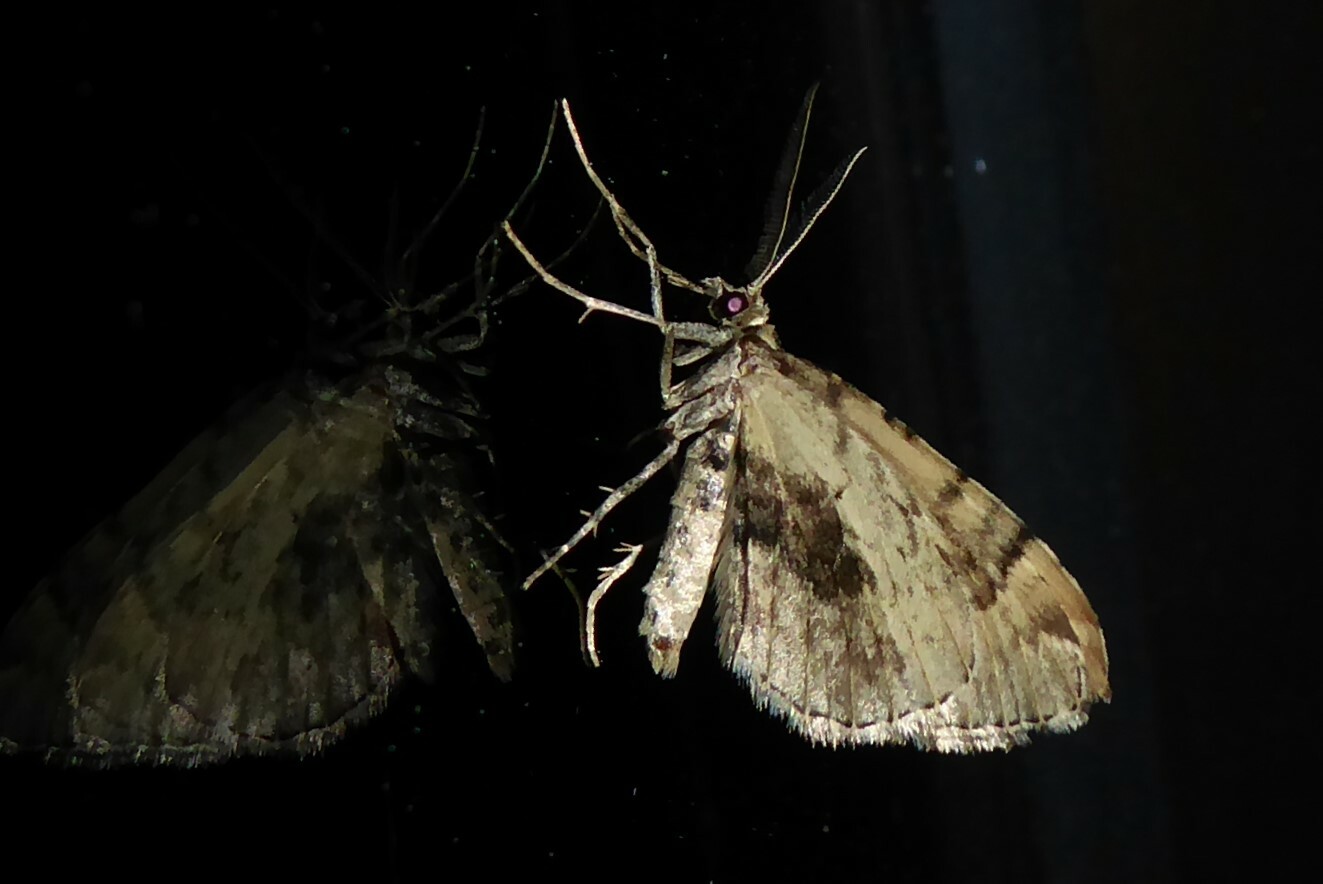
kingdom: Animalia
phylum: Arthropoda
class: Insecta
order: Lepidoptera
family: Geometridae
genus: Asaphodes
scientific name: Asaphodes aegrota
